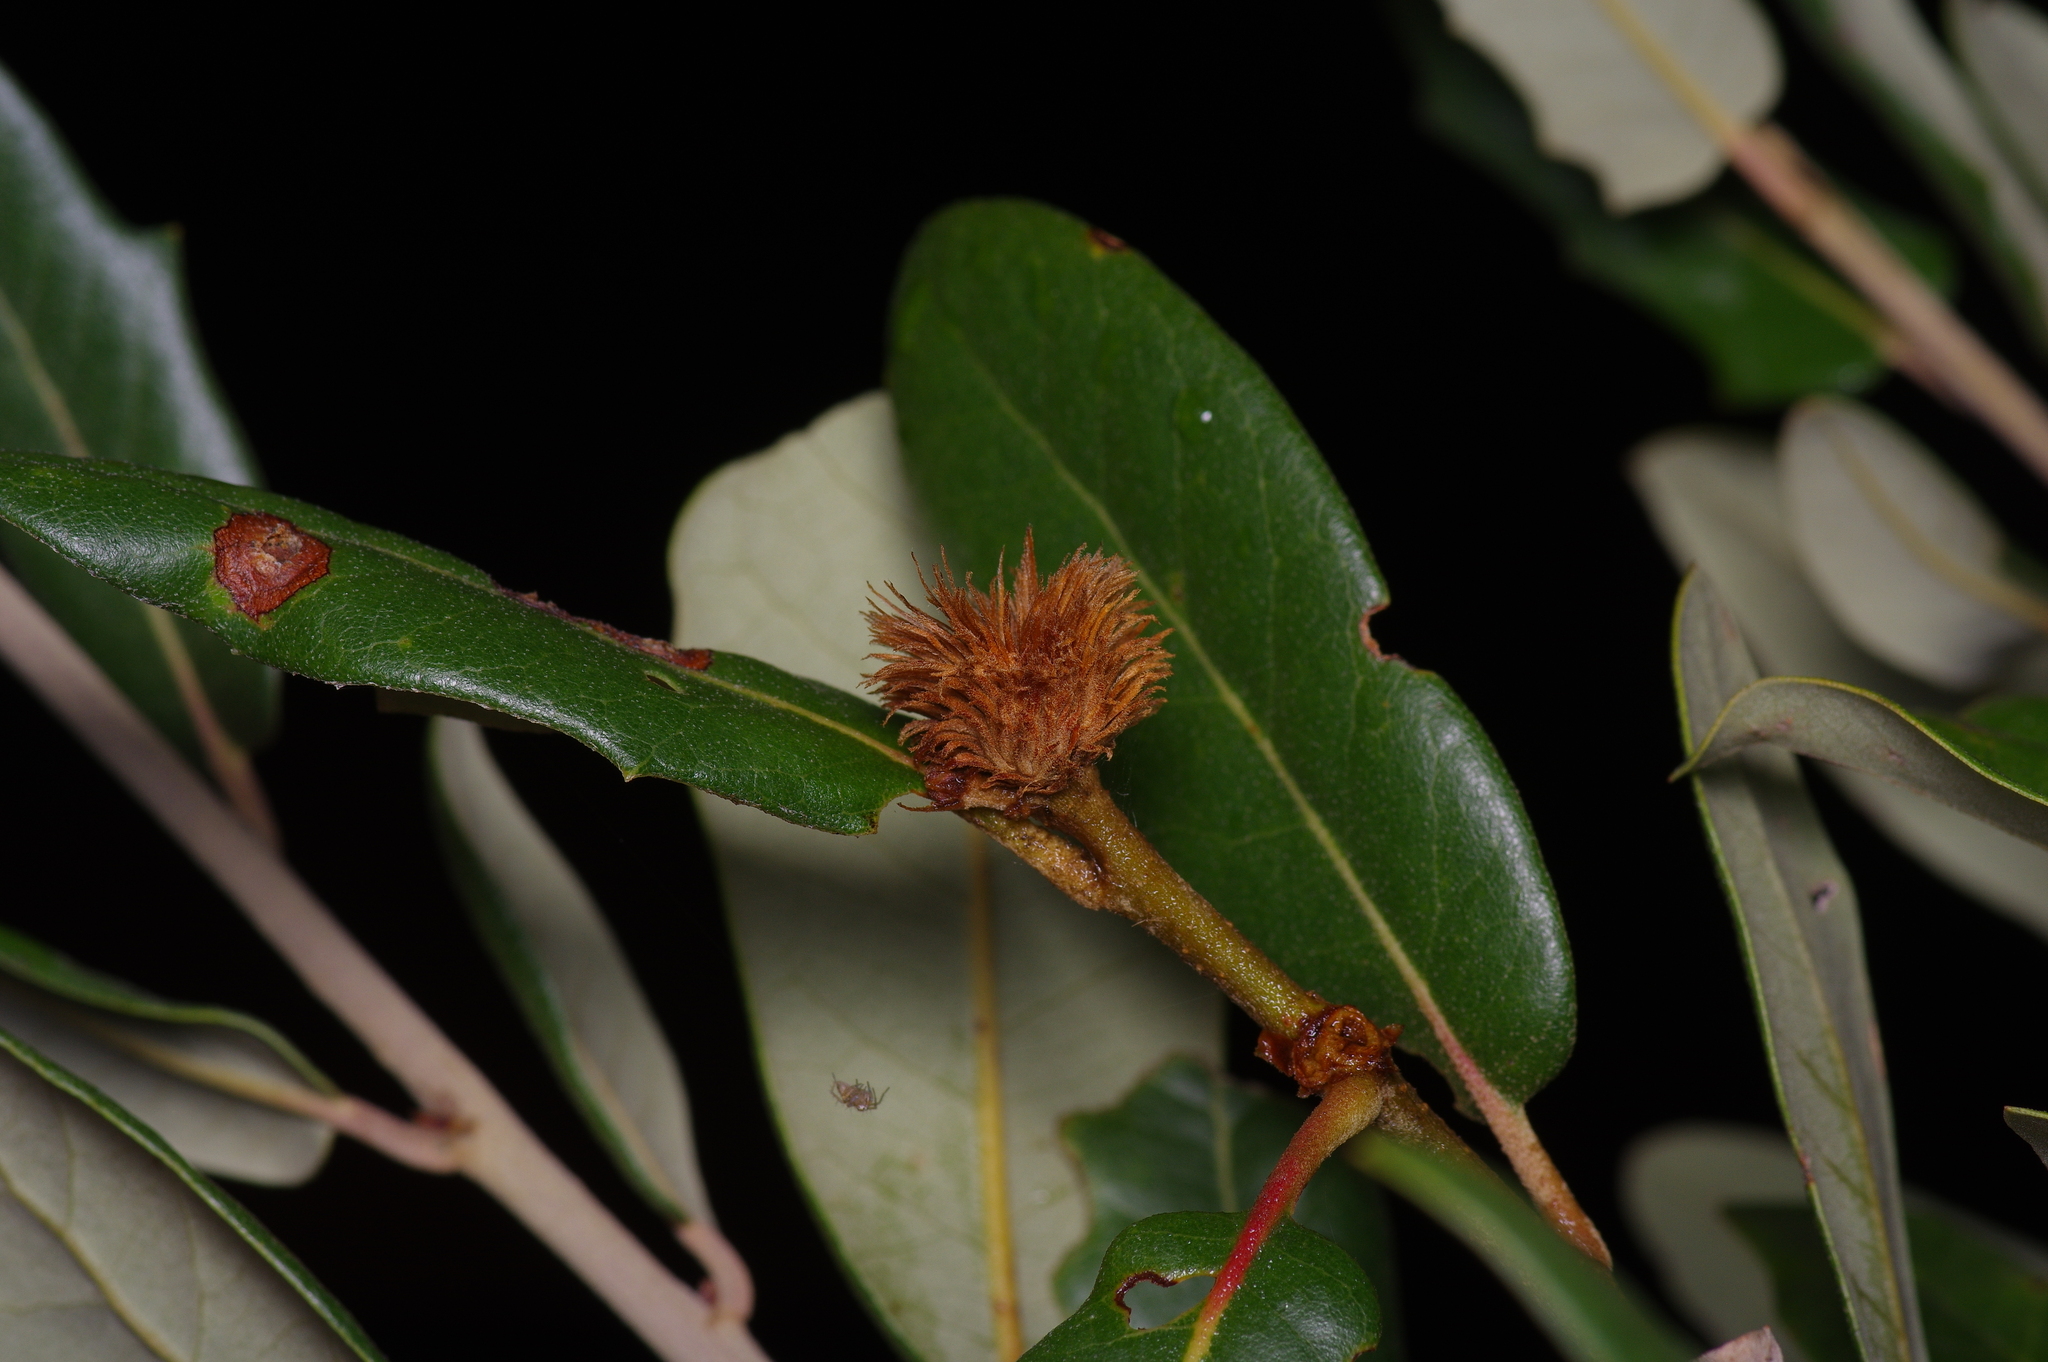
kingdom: Animalia
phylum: Arthropoda
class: Insecta
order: Hymenoptera
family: Cynipidae
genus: Andricus
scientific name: Andricus quercusfoliatus
